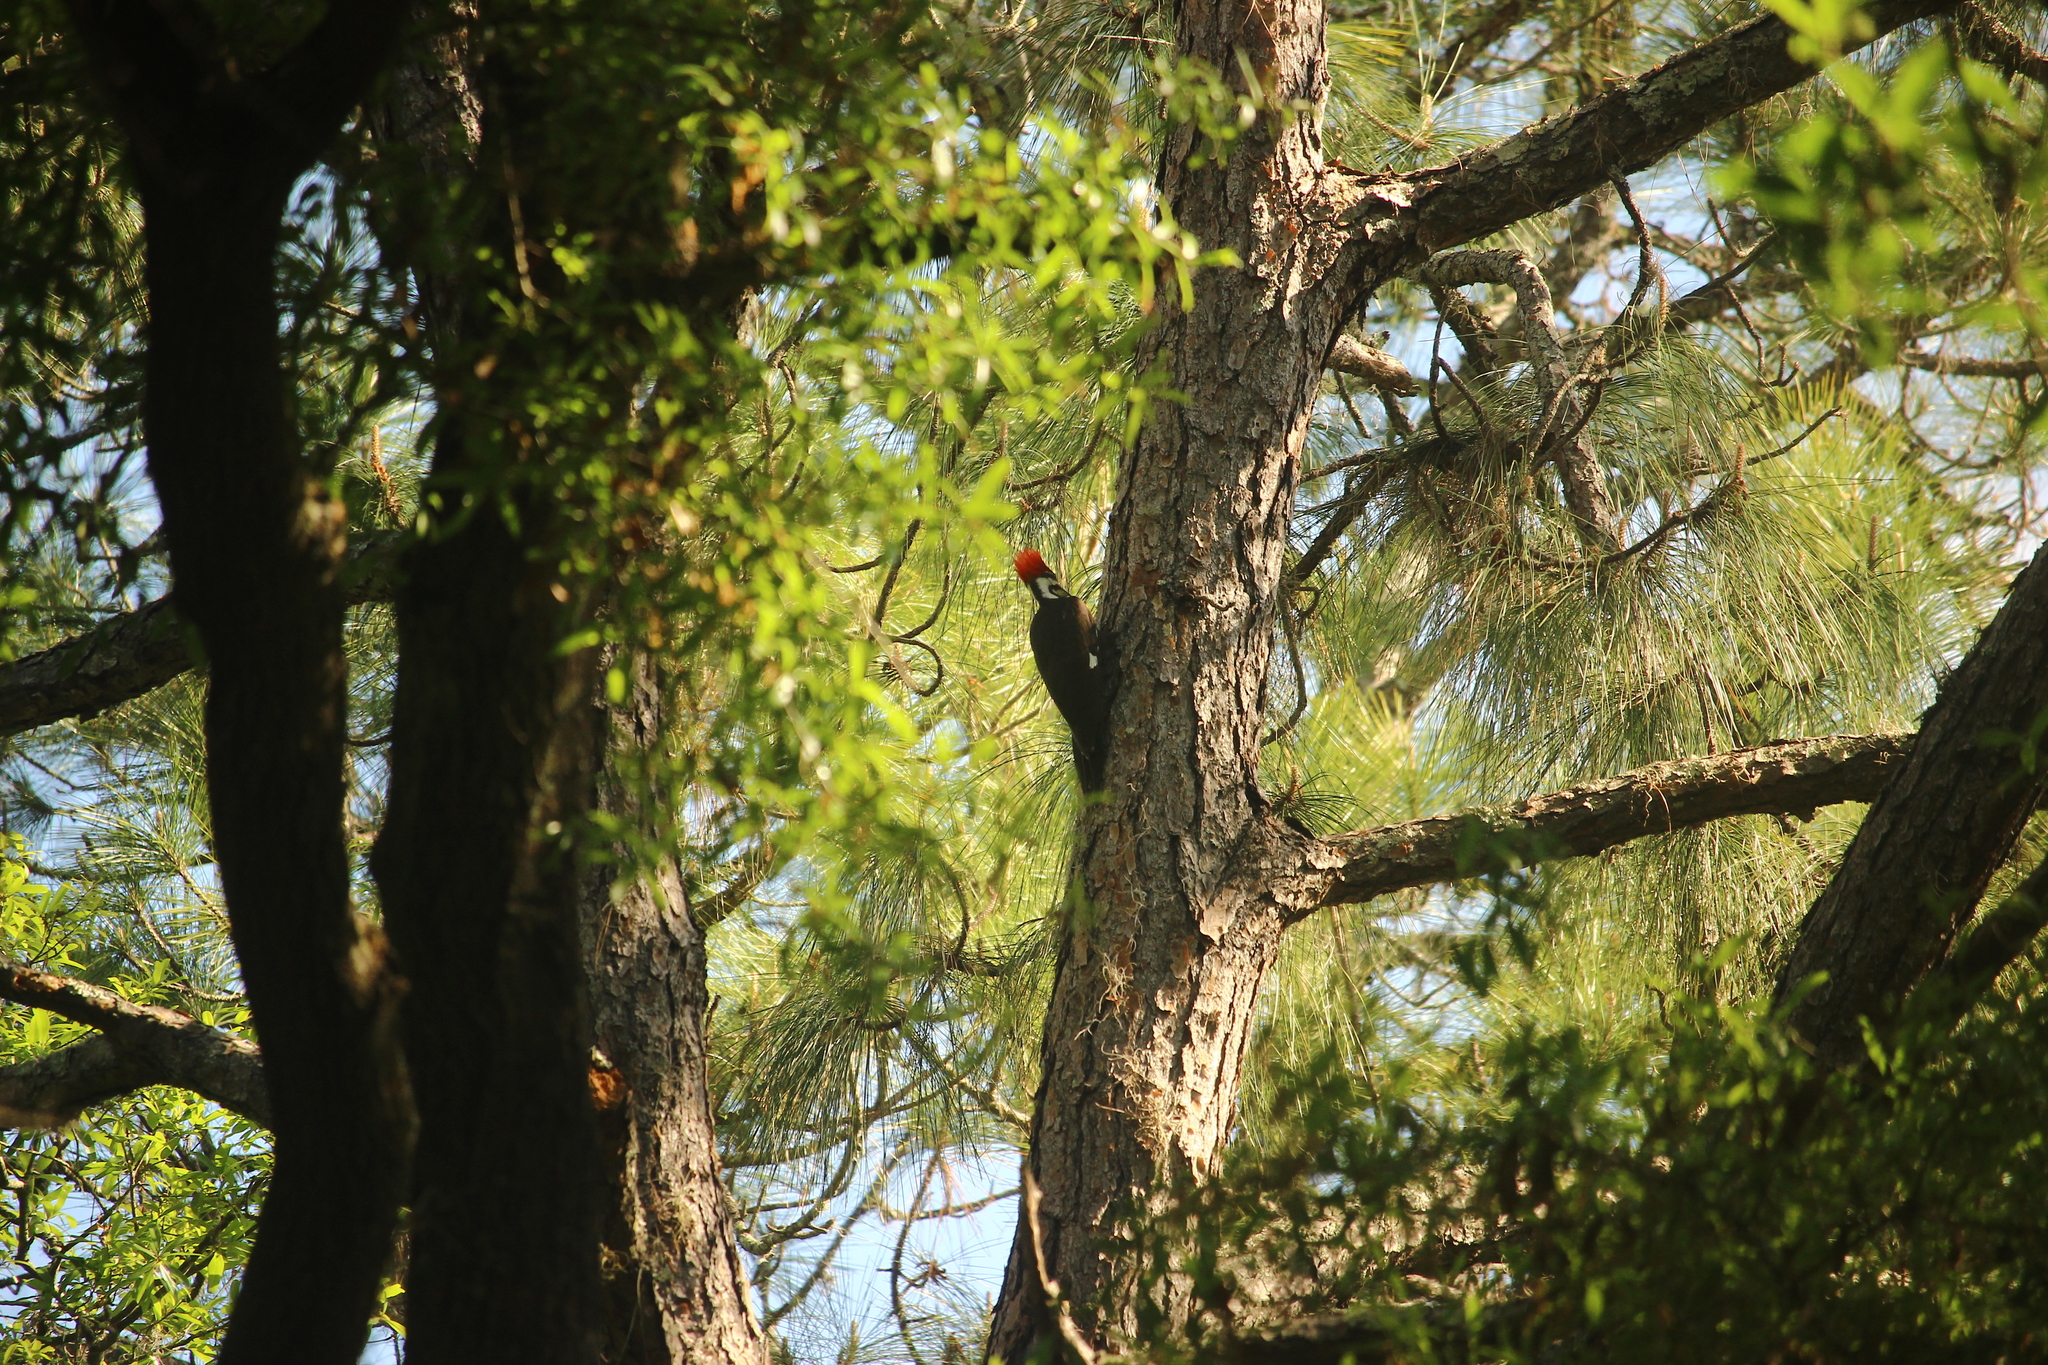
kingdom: Animalia
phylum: Chordata
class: Aves
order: Piciformes
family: Picidae
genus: Dryocopus
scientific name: Dryocopus pileatus
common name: Pileated woodpecker
